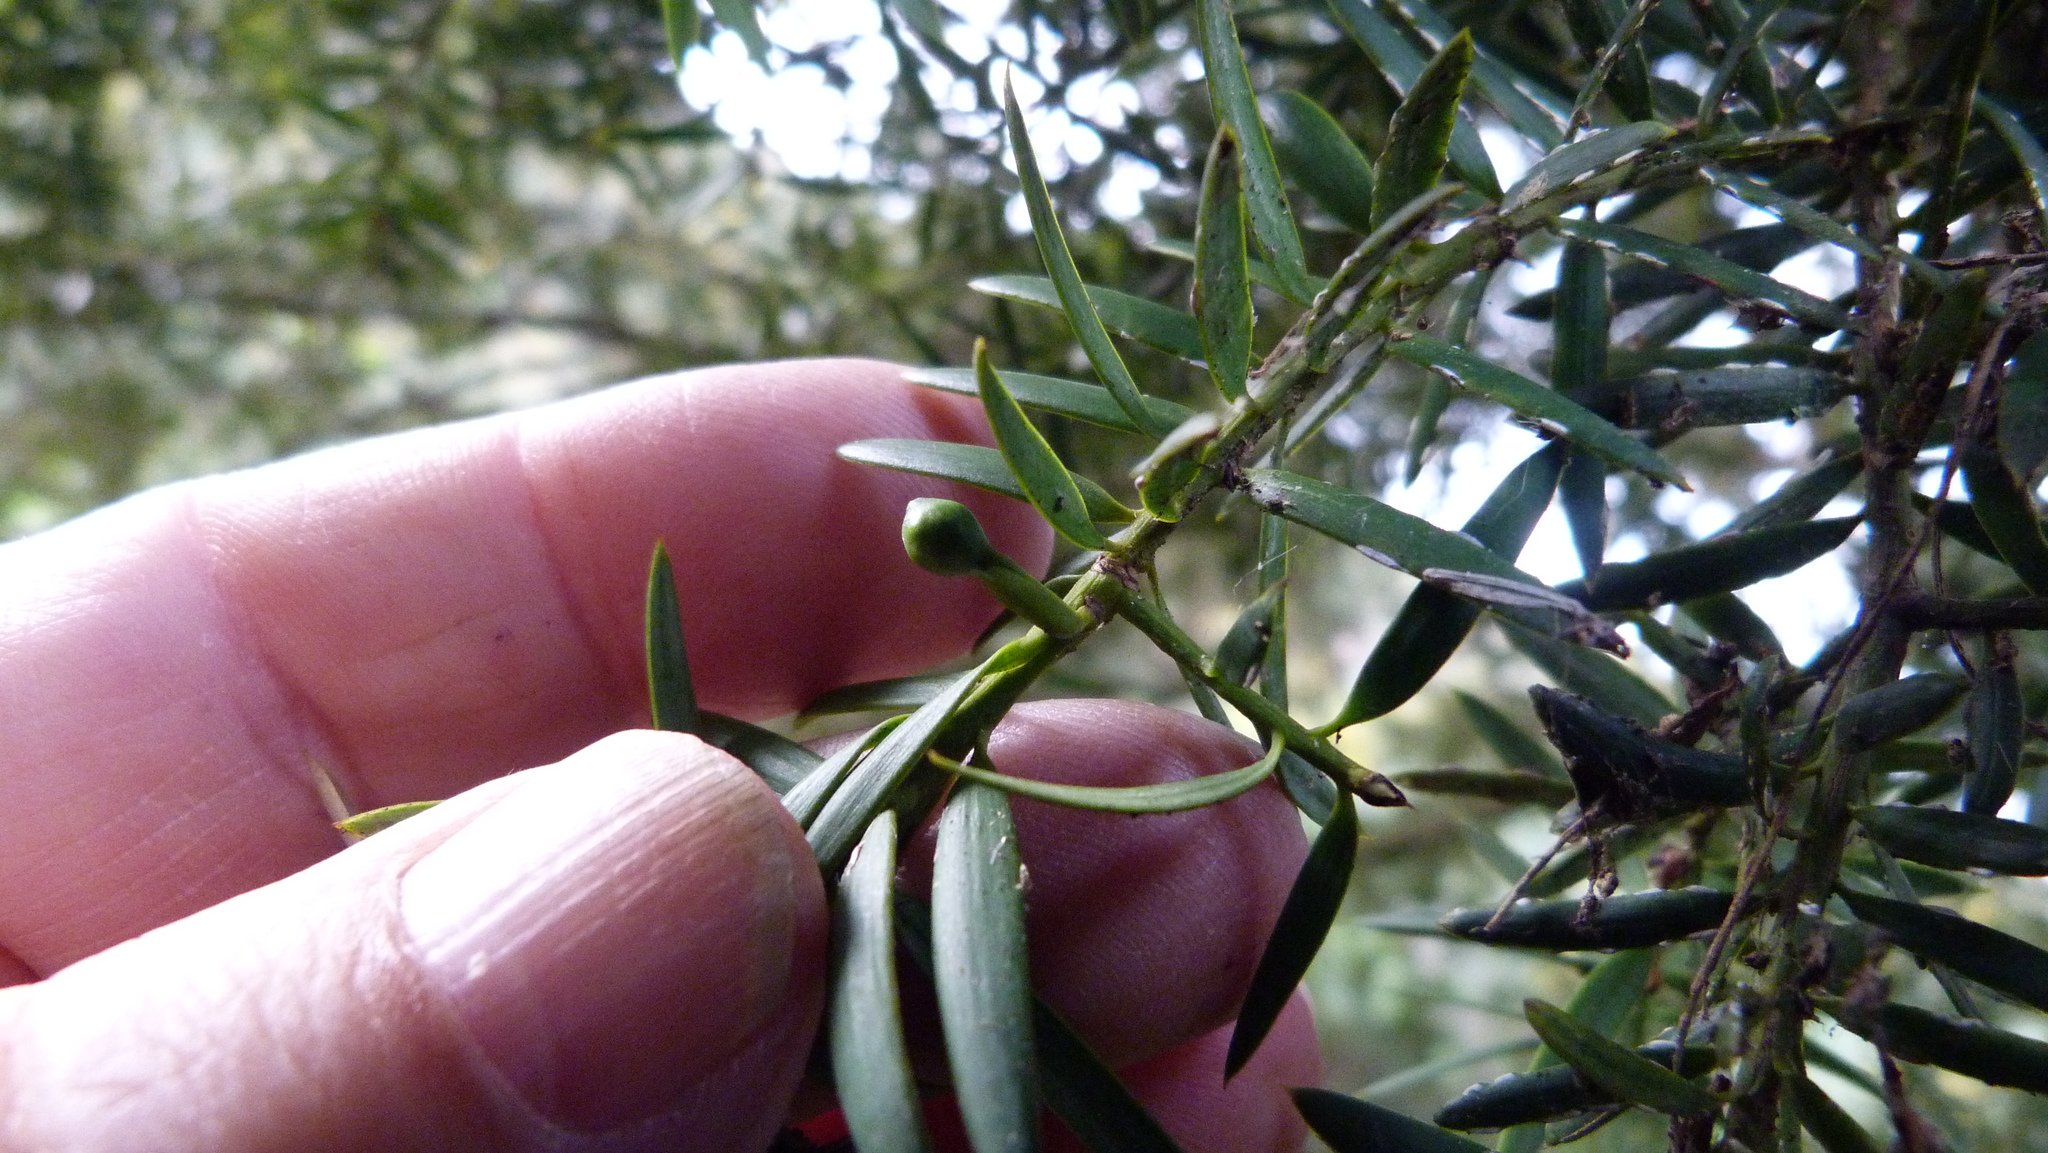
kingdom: Plantae
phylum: Tracheophyta
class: Pinopsida
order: Pinales
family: Podocarpaceae
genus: Podocarpus
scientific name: Podocarpus totara
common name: Totara
